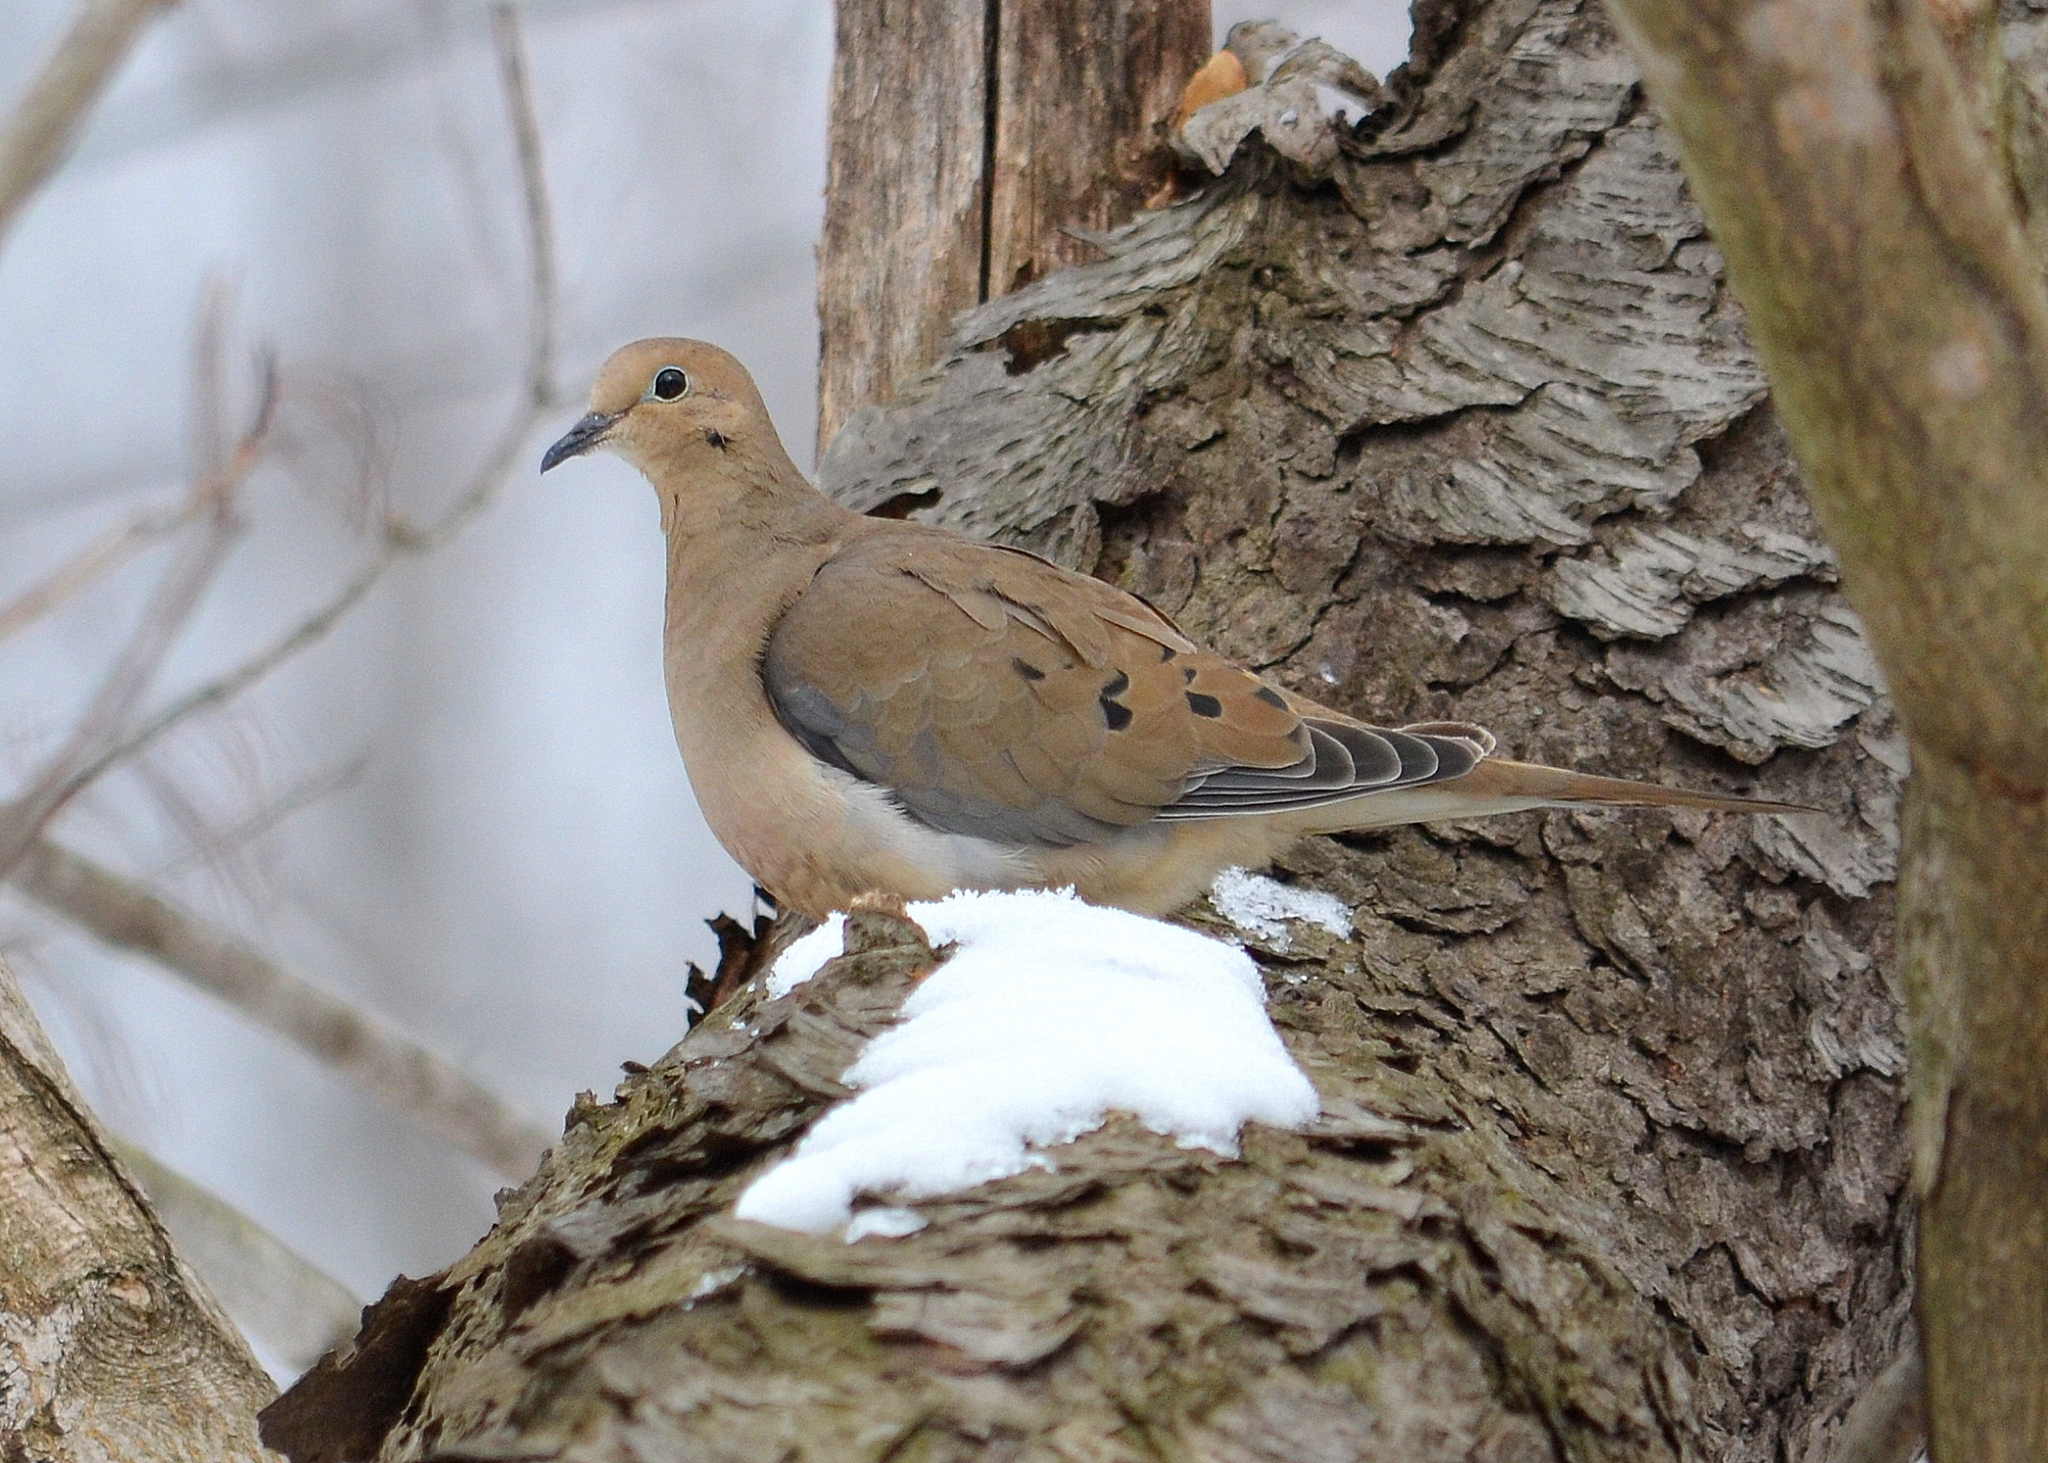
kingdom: Animalia
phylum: Chordata
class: Aves
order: Columbiformes
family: Columbidae
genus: Zenaida
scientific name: Zenaida macroura
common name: Mourning dove
